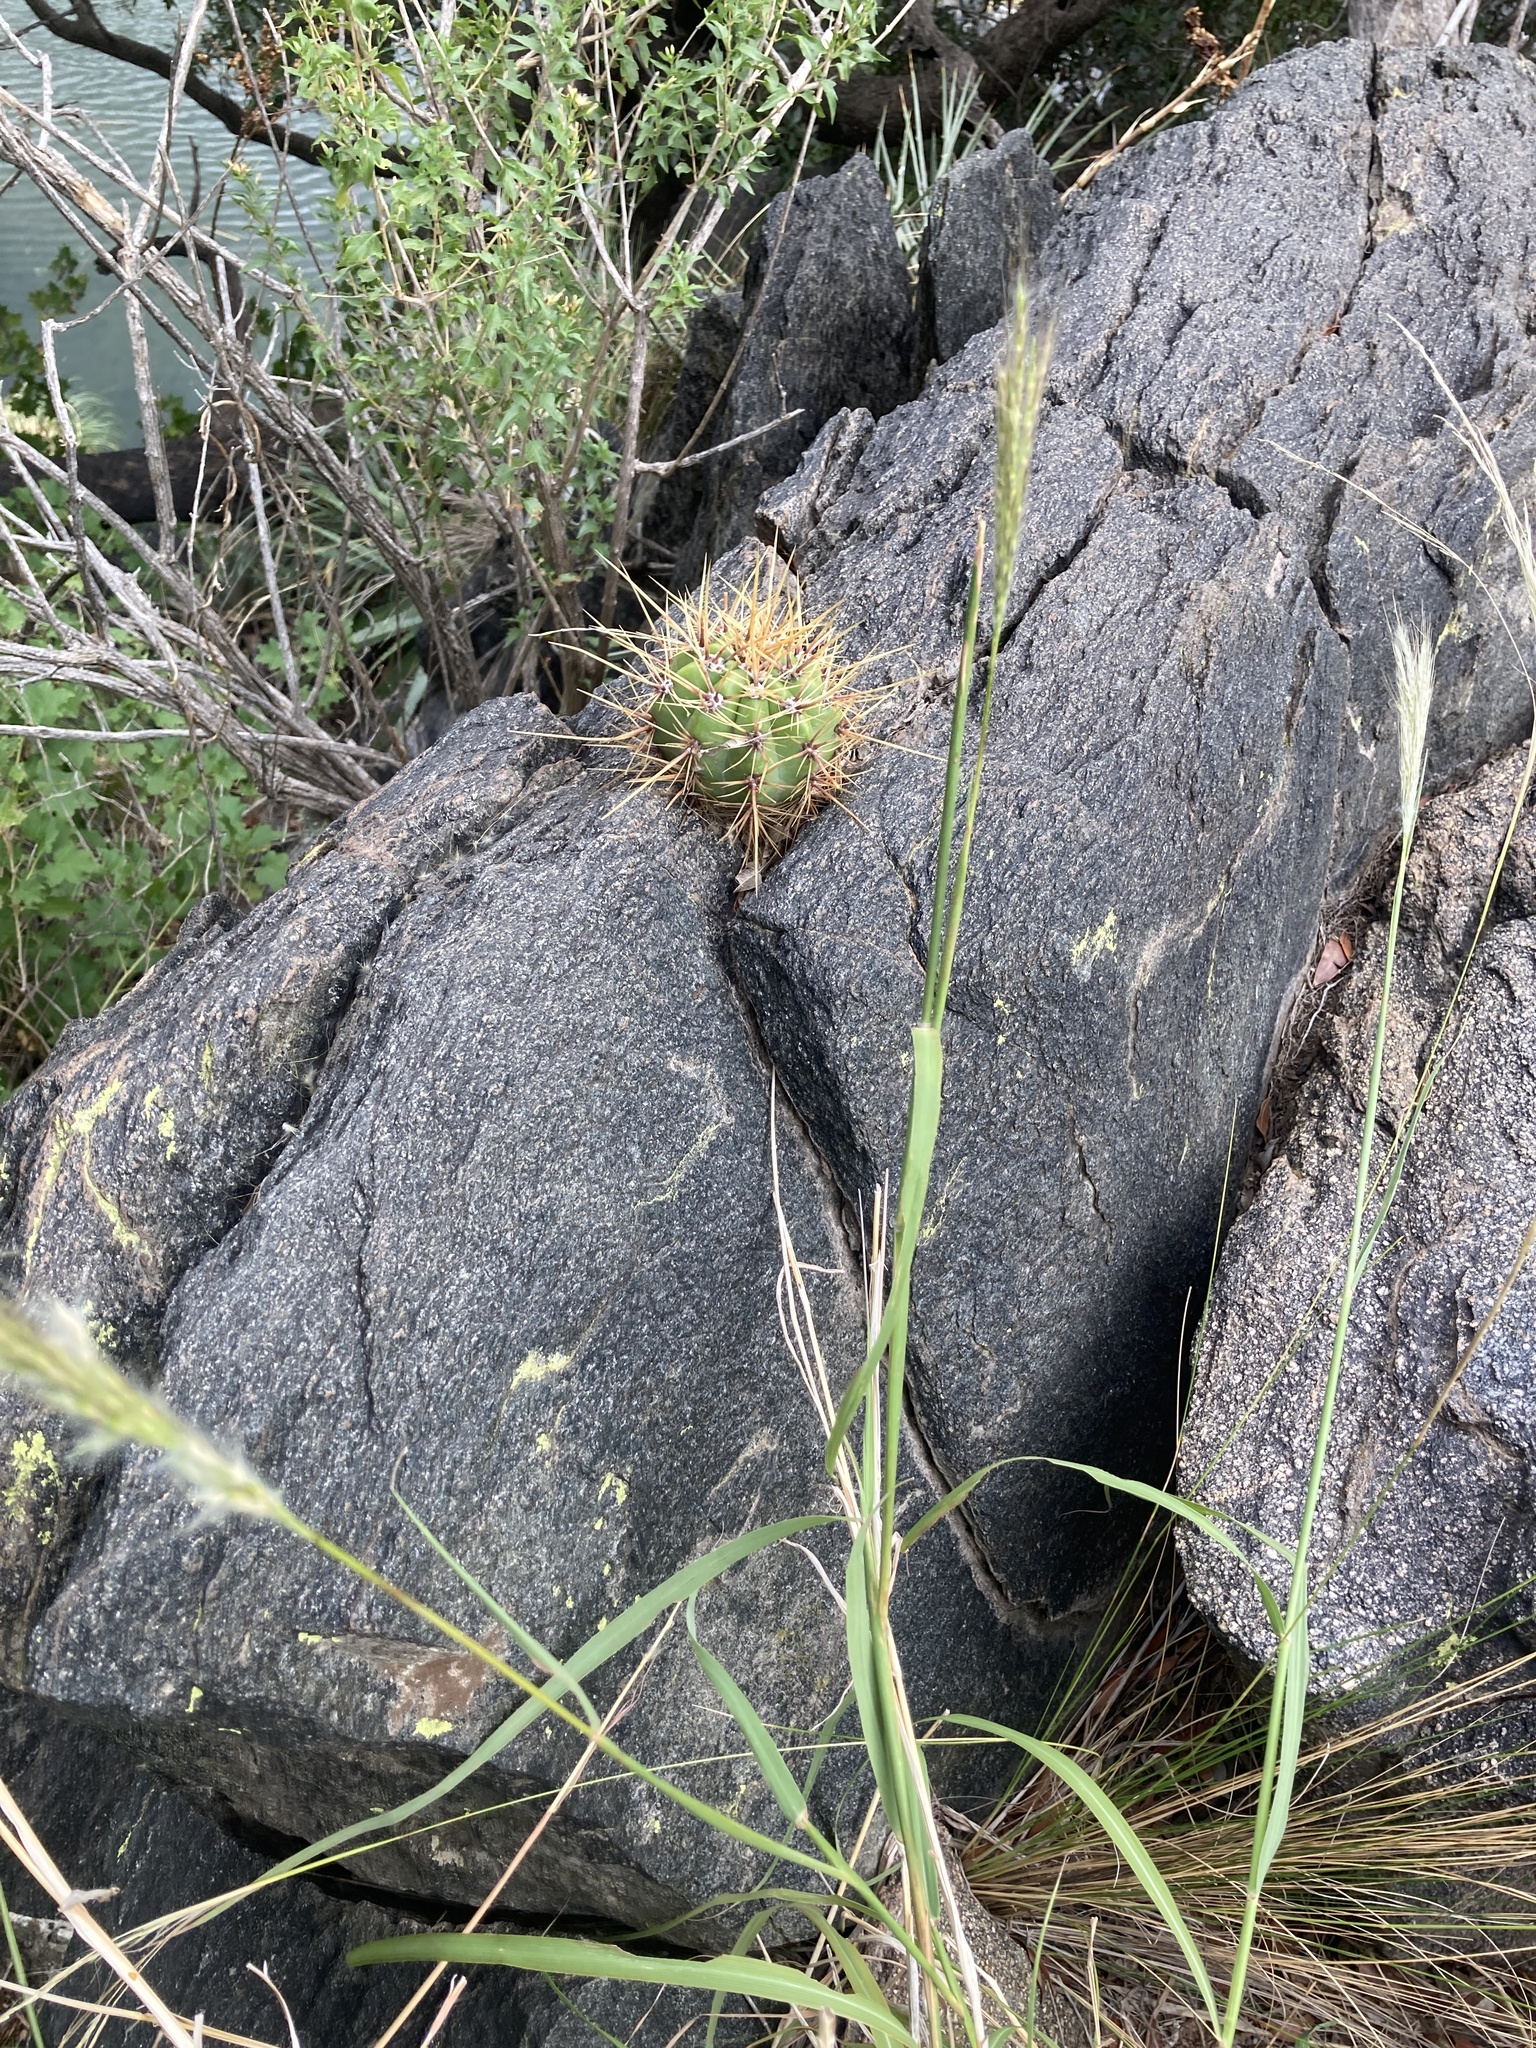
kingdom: Plantae
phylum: Tracheophyta
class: Magnoliopsida
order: Caryophyllales
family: Cactaceae
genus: Soehrensia
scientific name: Soehrensia candicans
